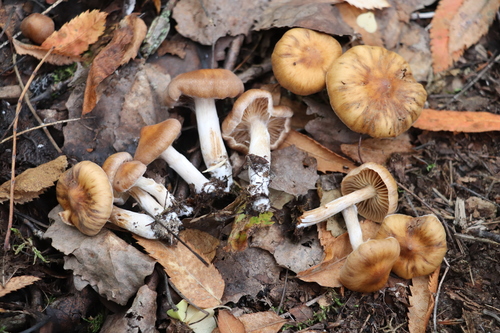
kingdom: Fungi
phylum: Basidiomycota
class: Agaricomycetes
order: Agaricales
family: Cortinariaceae
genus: Cortinarius
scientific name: Cortinarius
